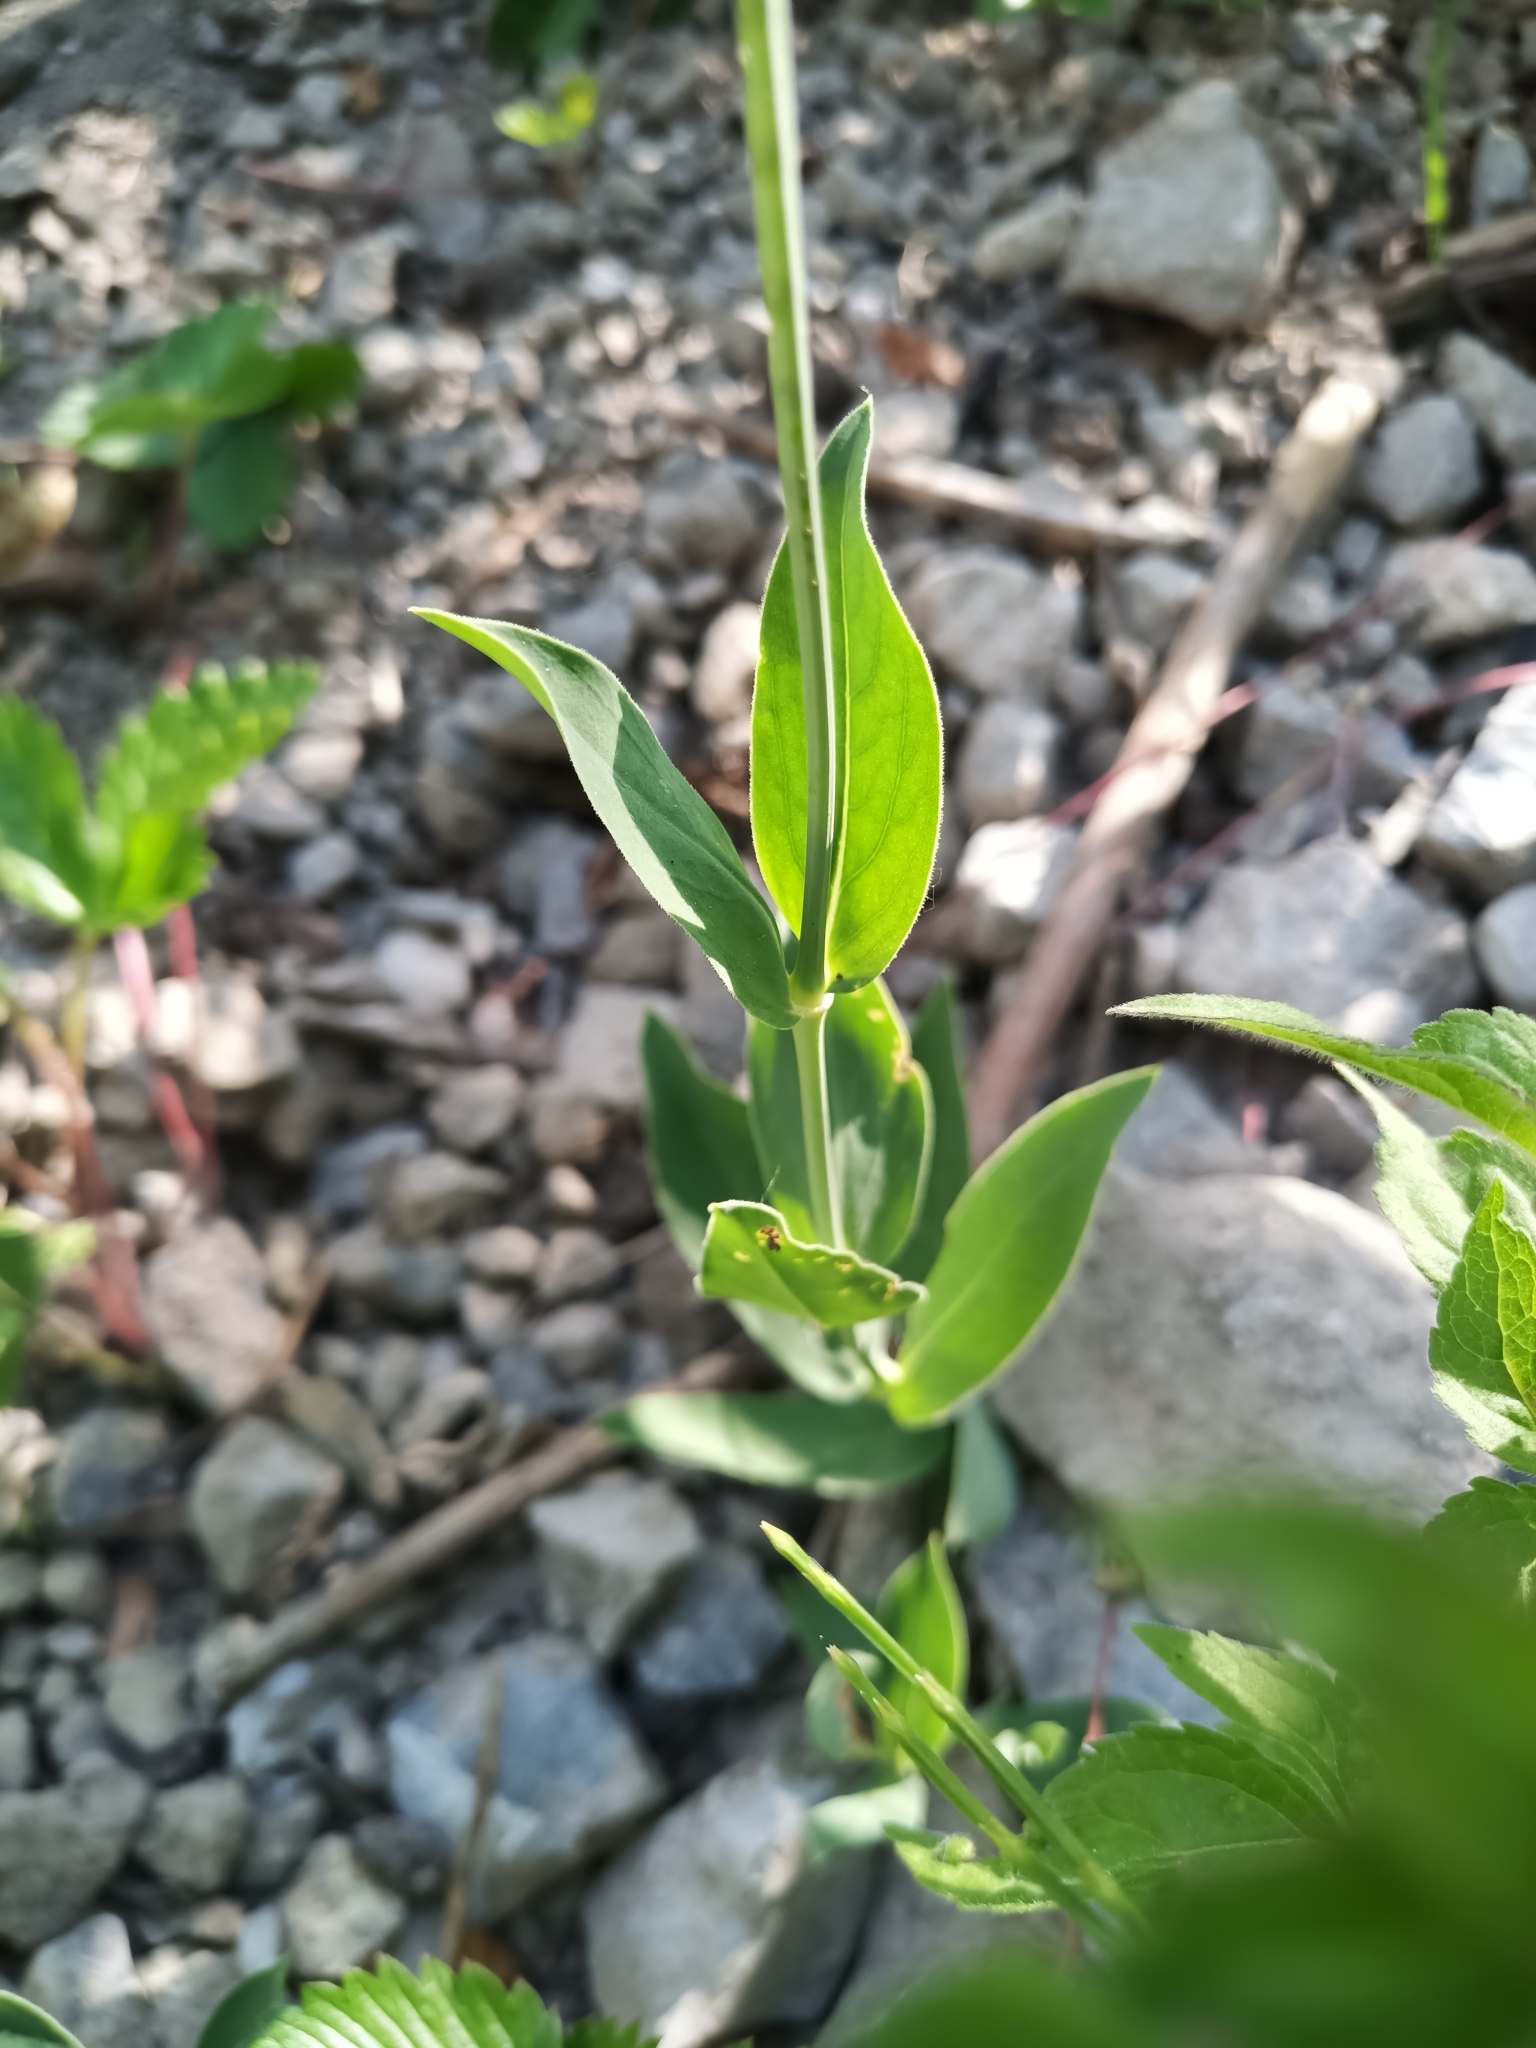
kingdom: Plantae
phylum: Tracheophyta
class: Magnoliopsida
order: Caryophyllales
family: Caryophyllaceae
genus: Silene
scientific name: Silene vulgaris
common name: Bladder campion
